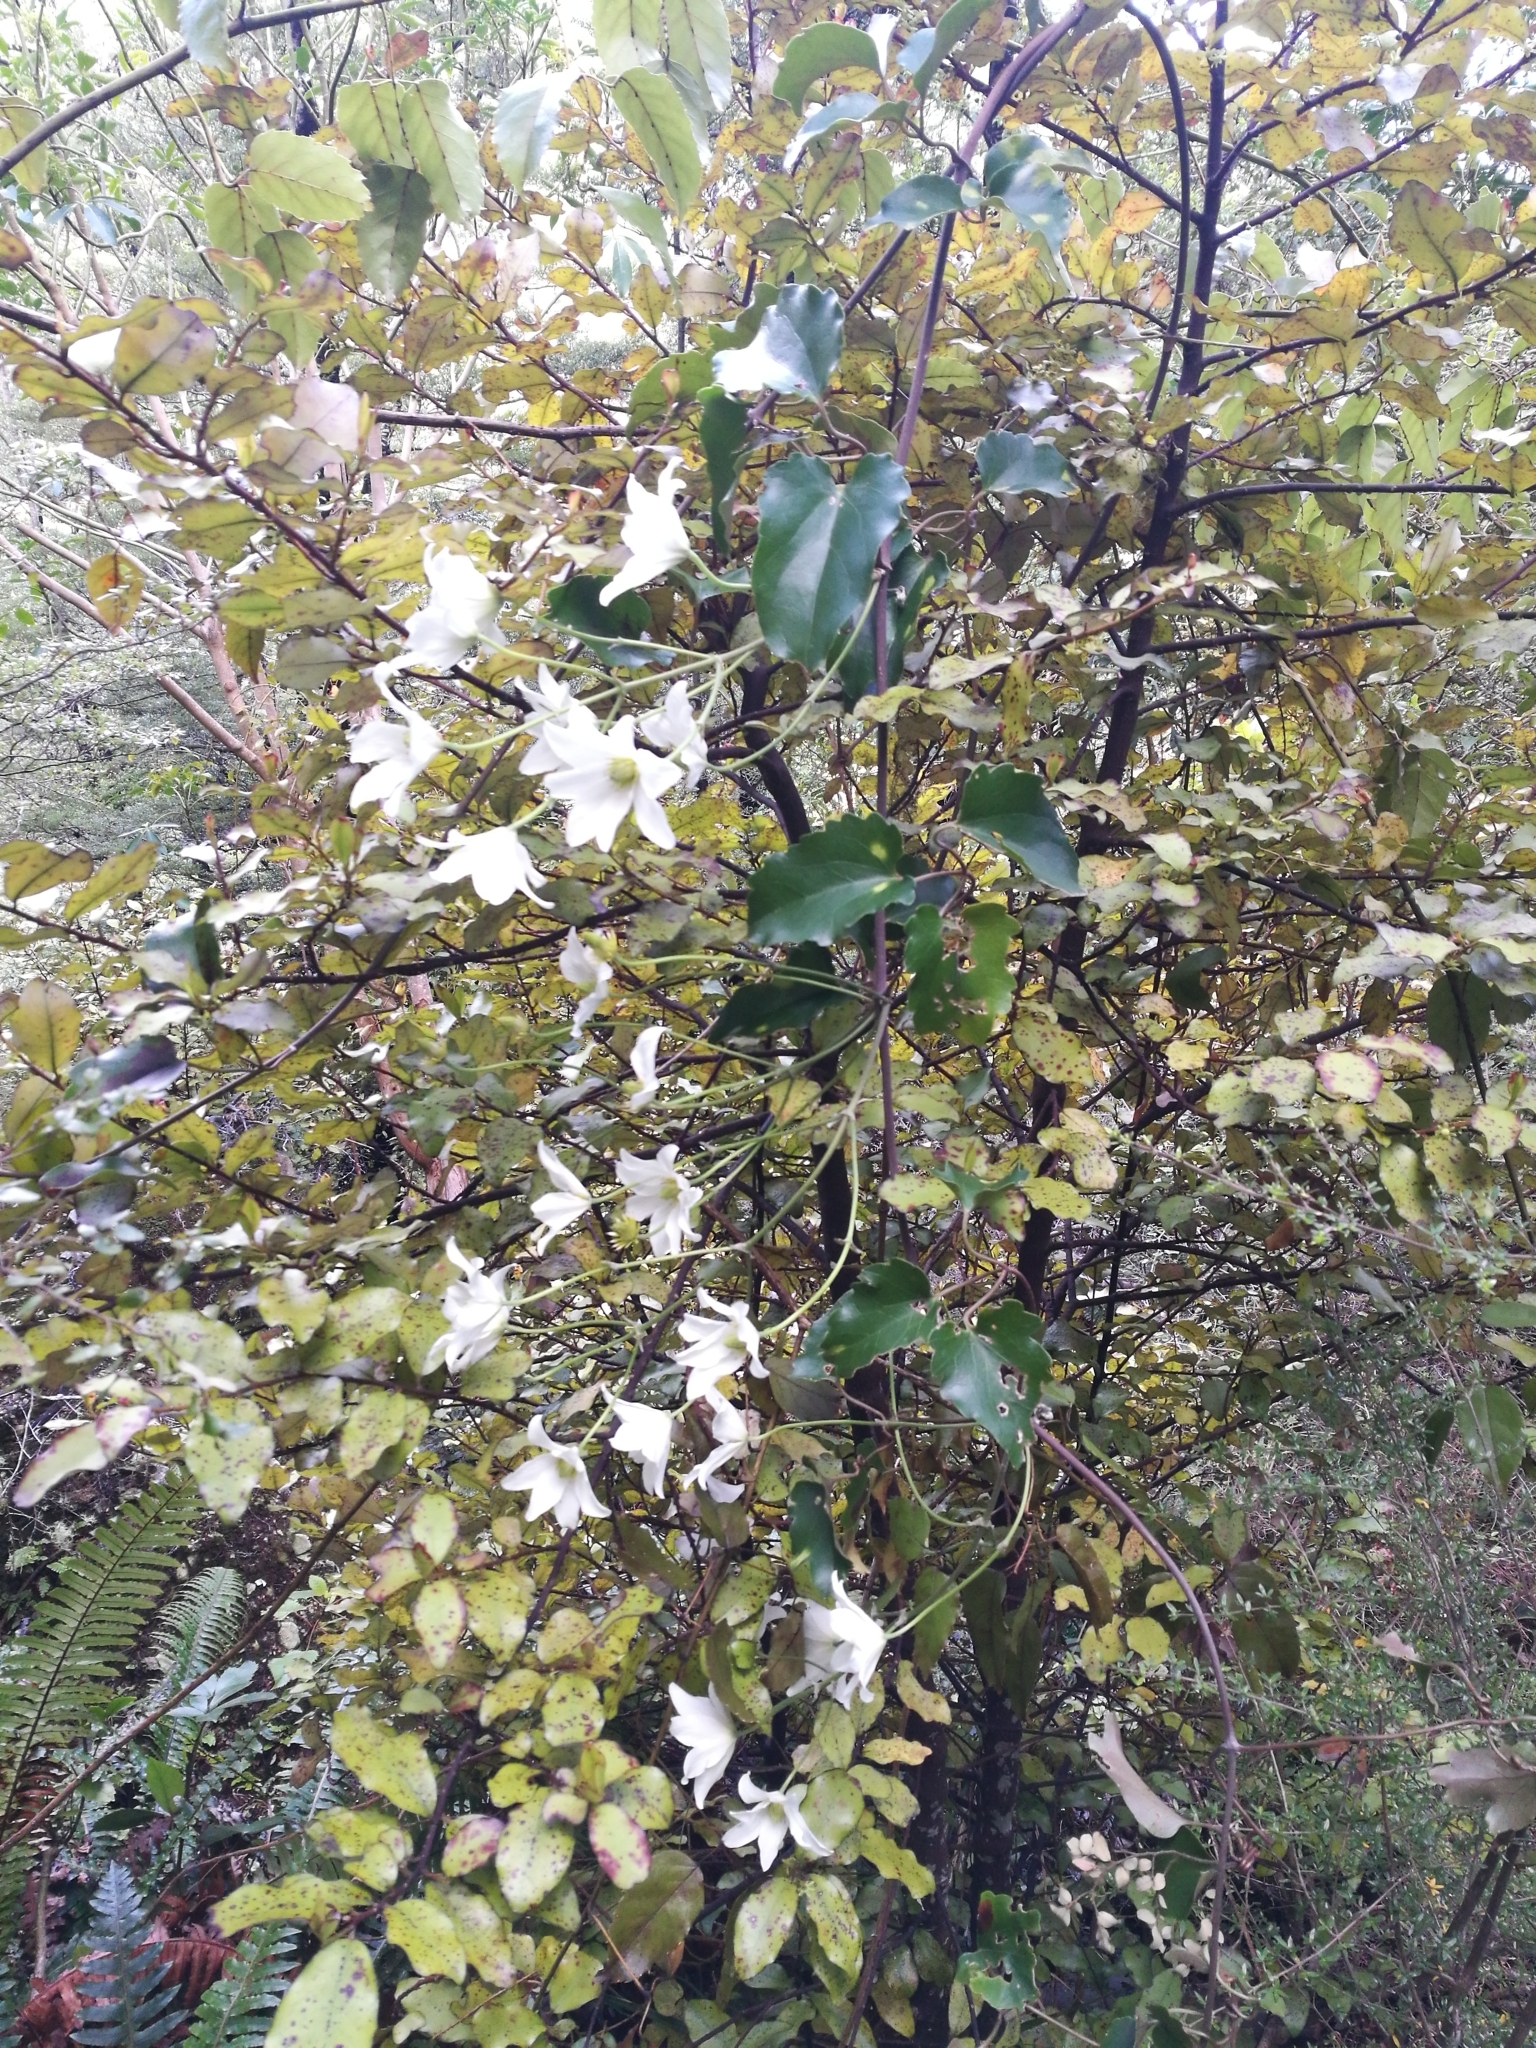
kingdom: Plantae
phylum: Tracheophyta
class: Magnoliopsida
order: Ranunculales
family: Ranunculaceae
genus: Clematis
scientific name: Clematis paniculata
